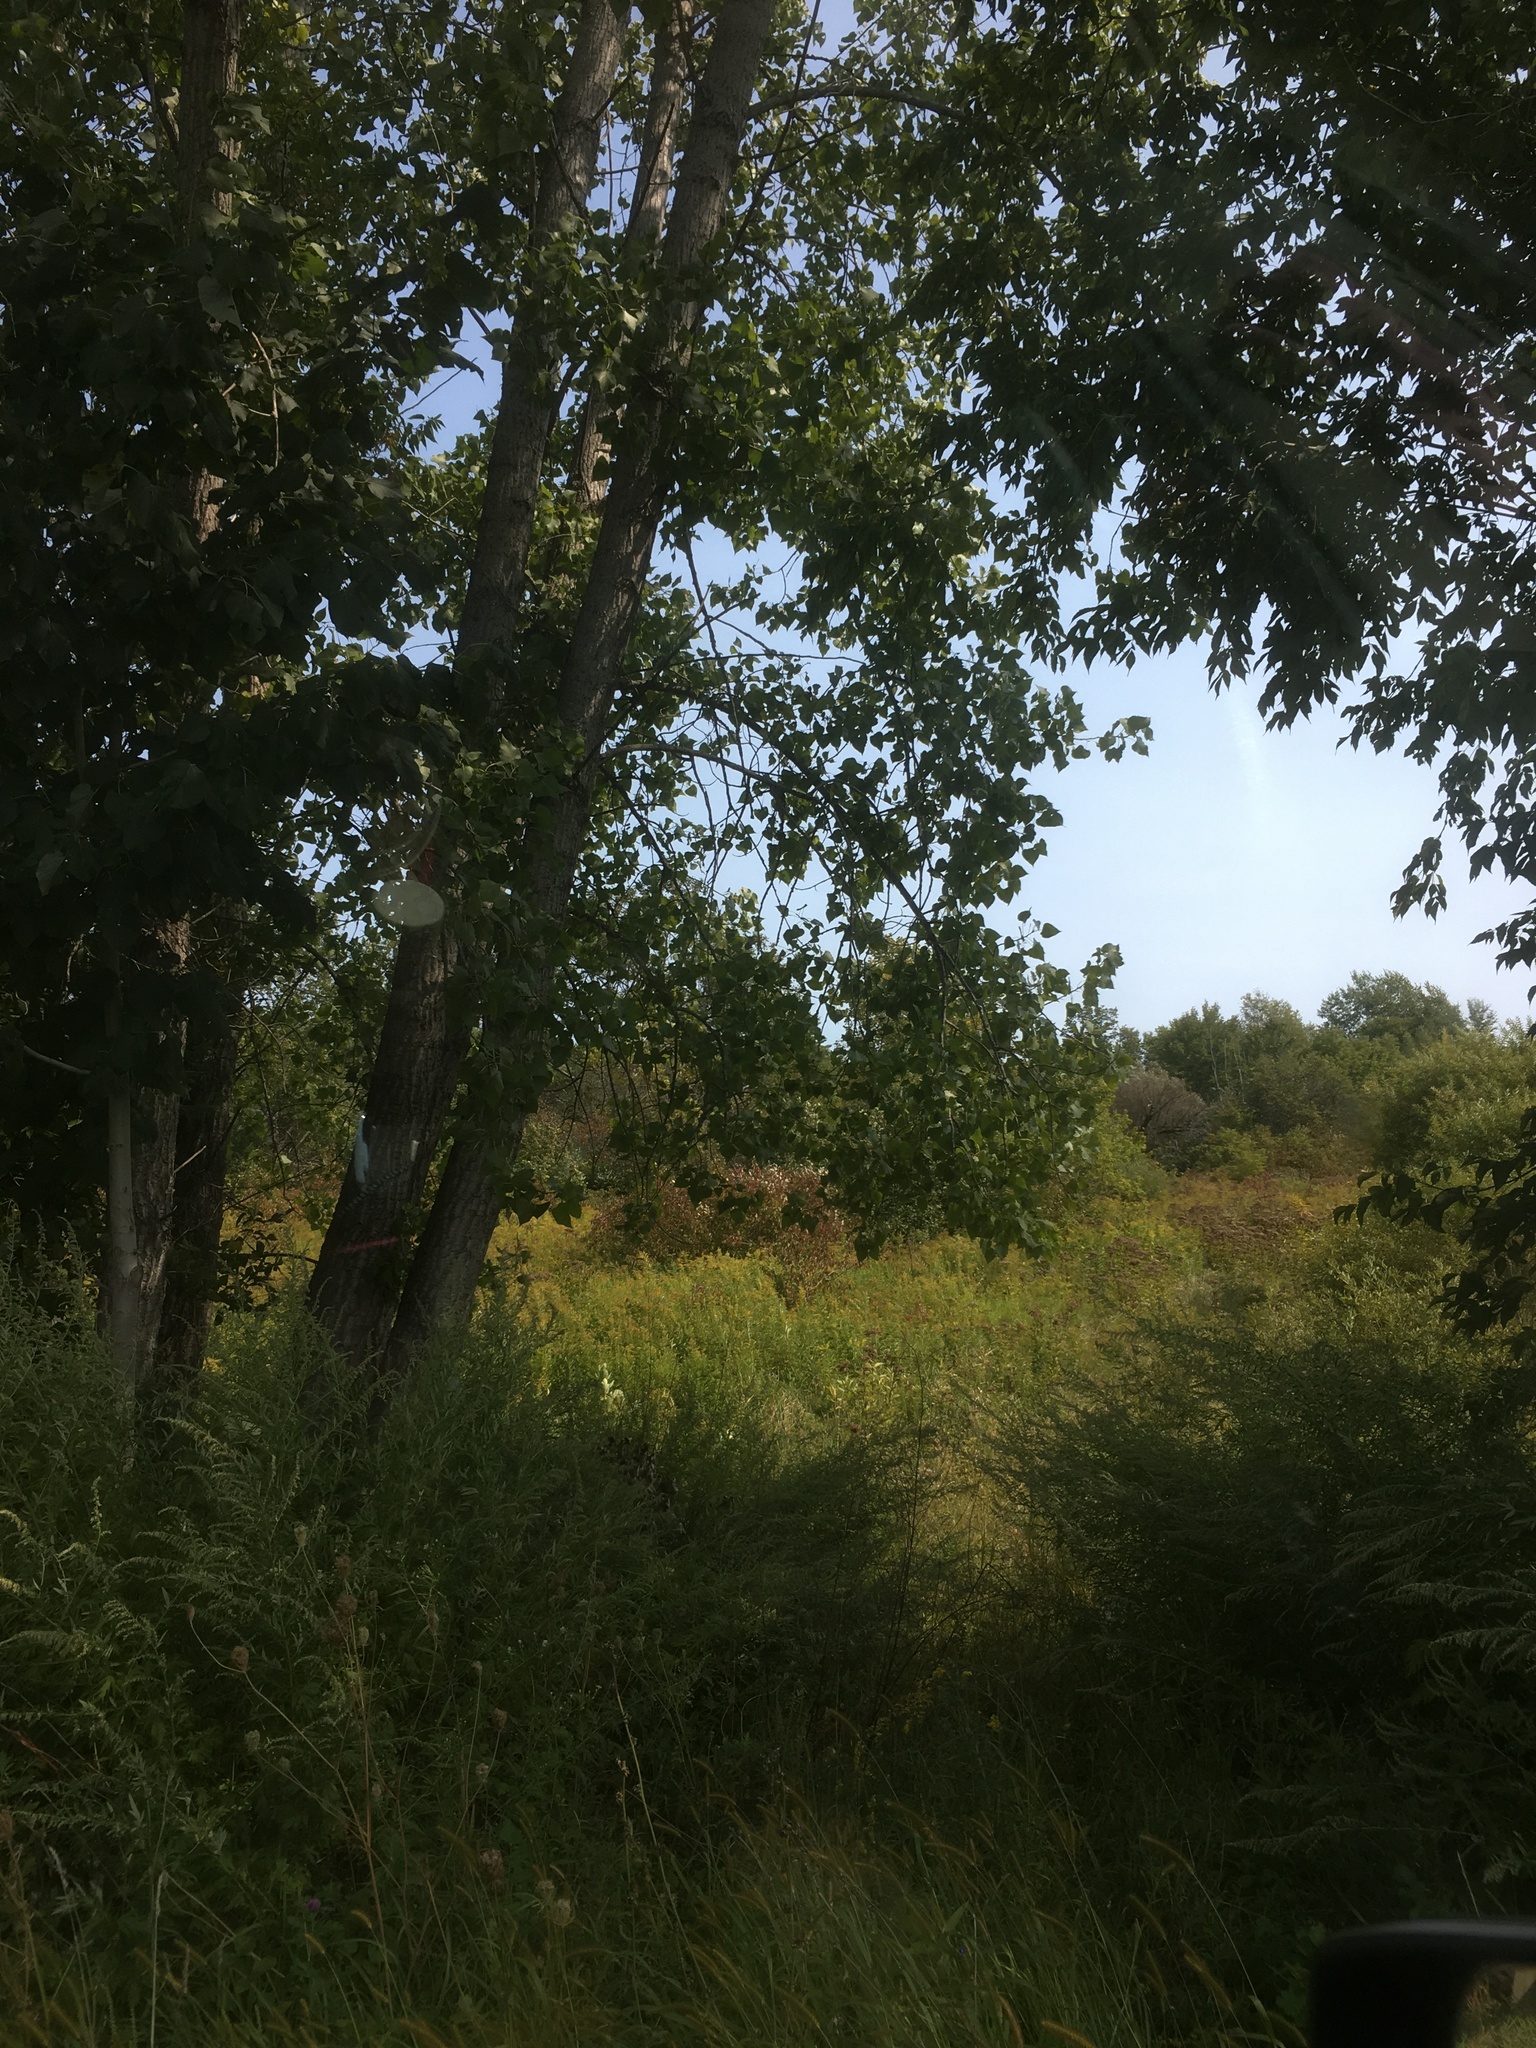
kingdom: Plantae
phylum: Tracheophyta
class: Magnoliopsida
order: Malpighiales
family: Salicaceae
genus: Populus
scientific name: Populus deltoides
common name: Eastern cottonwood
